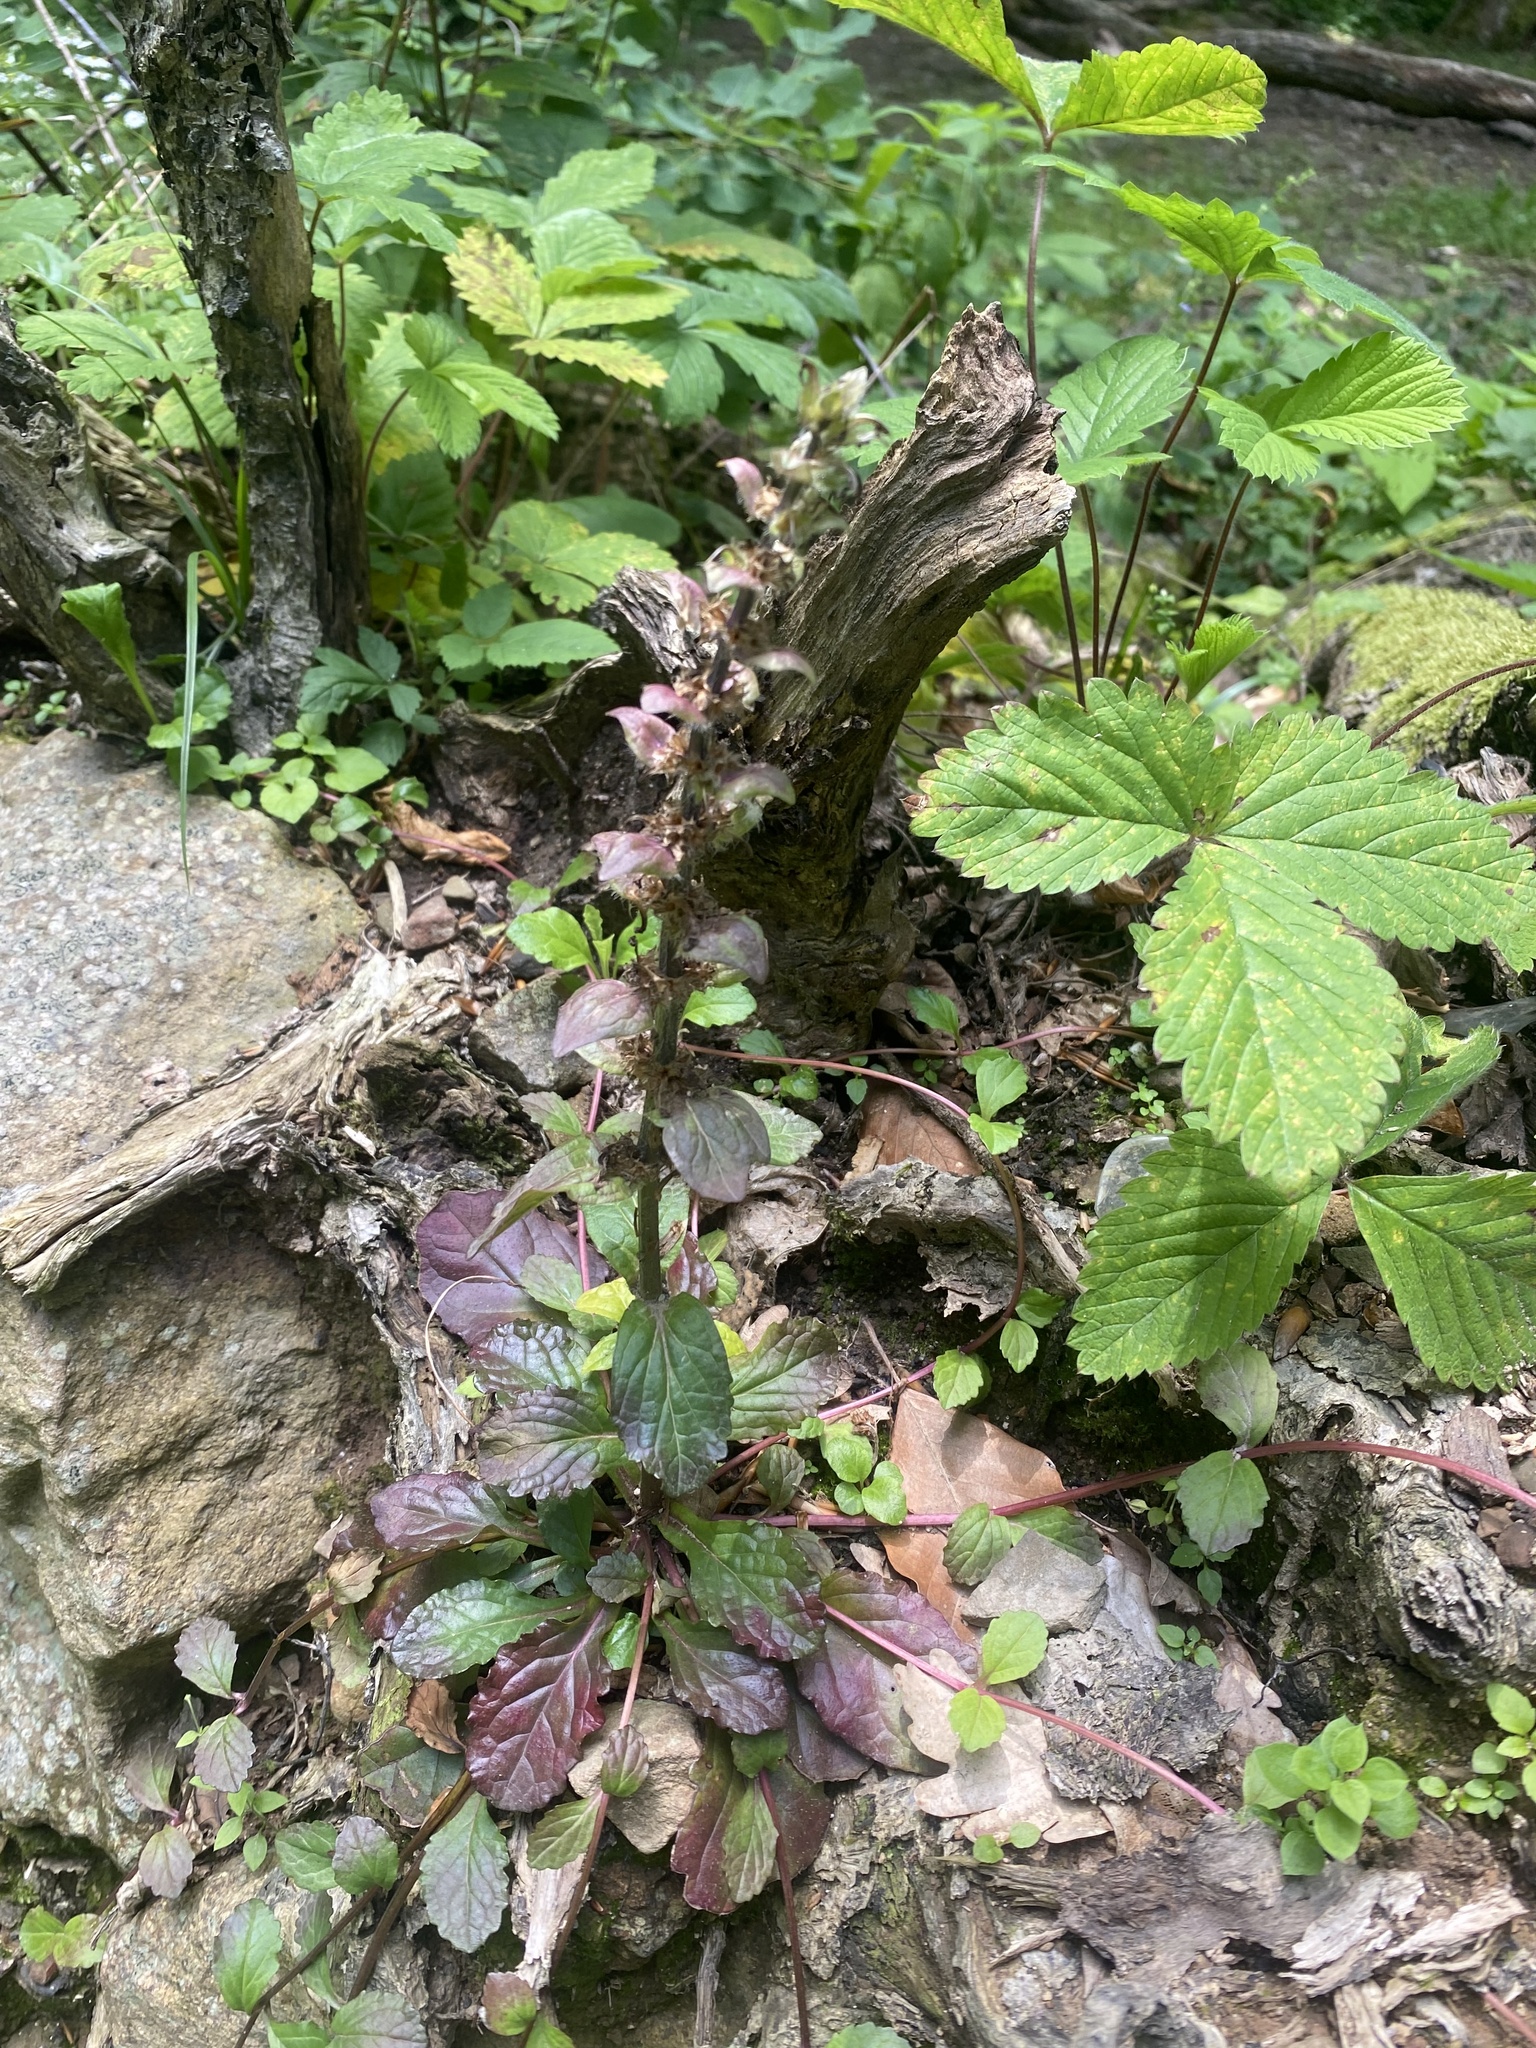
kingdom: Plantae
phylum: Tracheophyta
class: Magnoliopsida
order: Lamiales
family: Lamiaceae
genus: Ajuga
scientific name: Ajuga reptans
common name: Bugle
